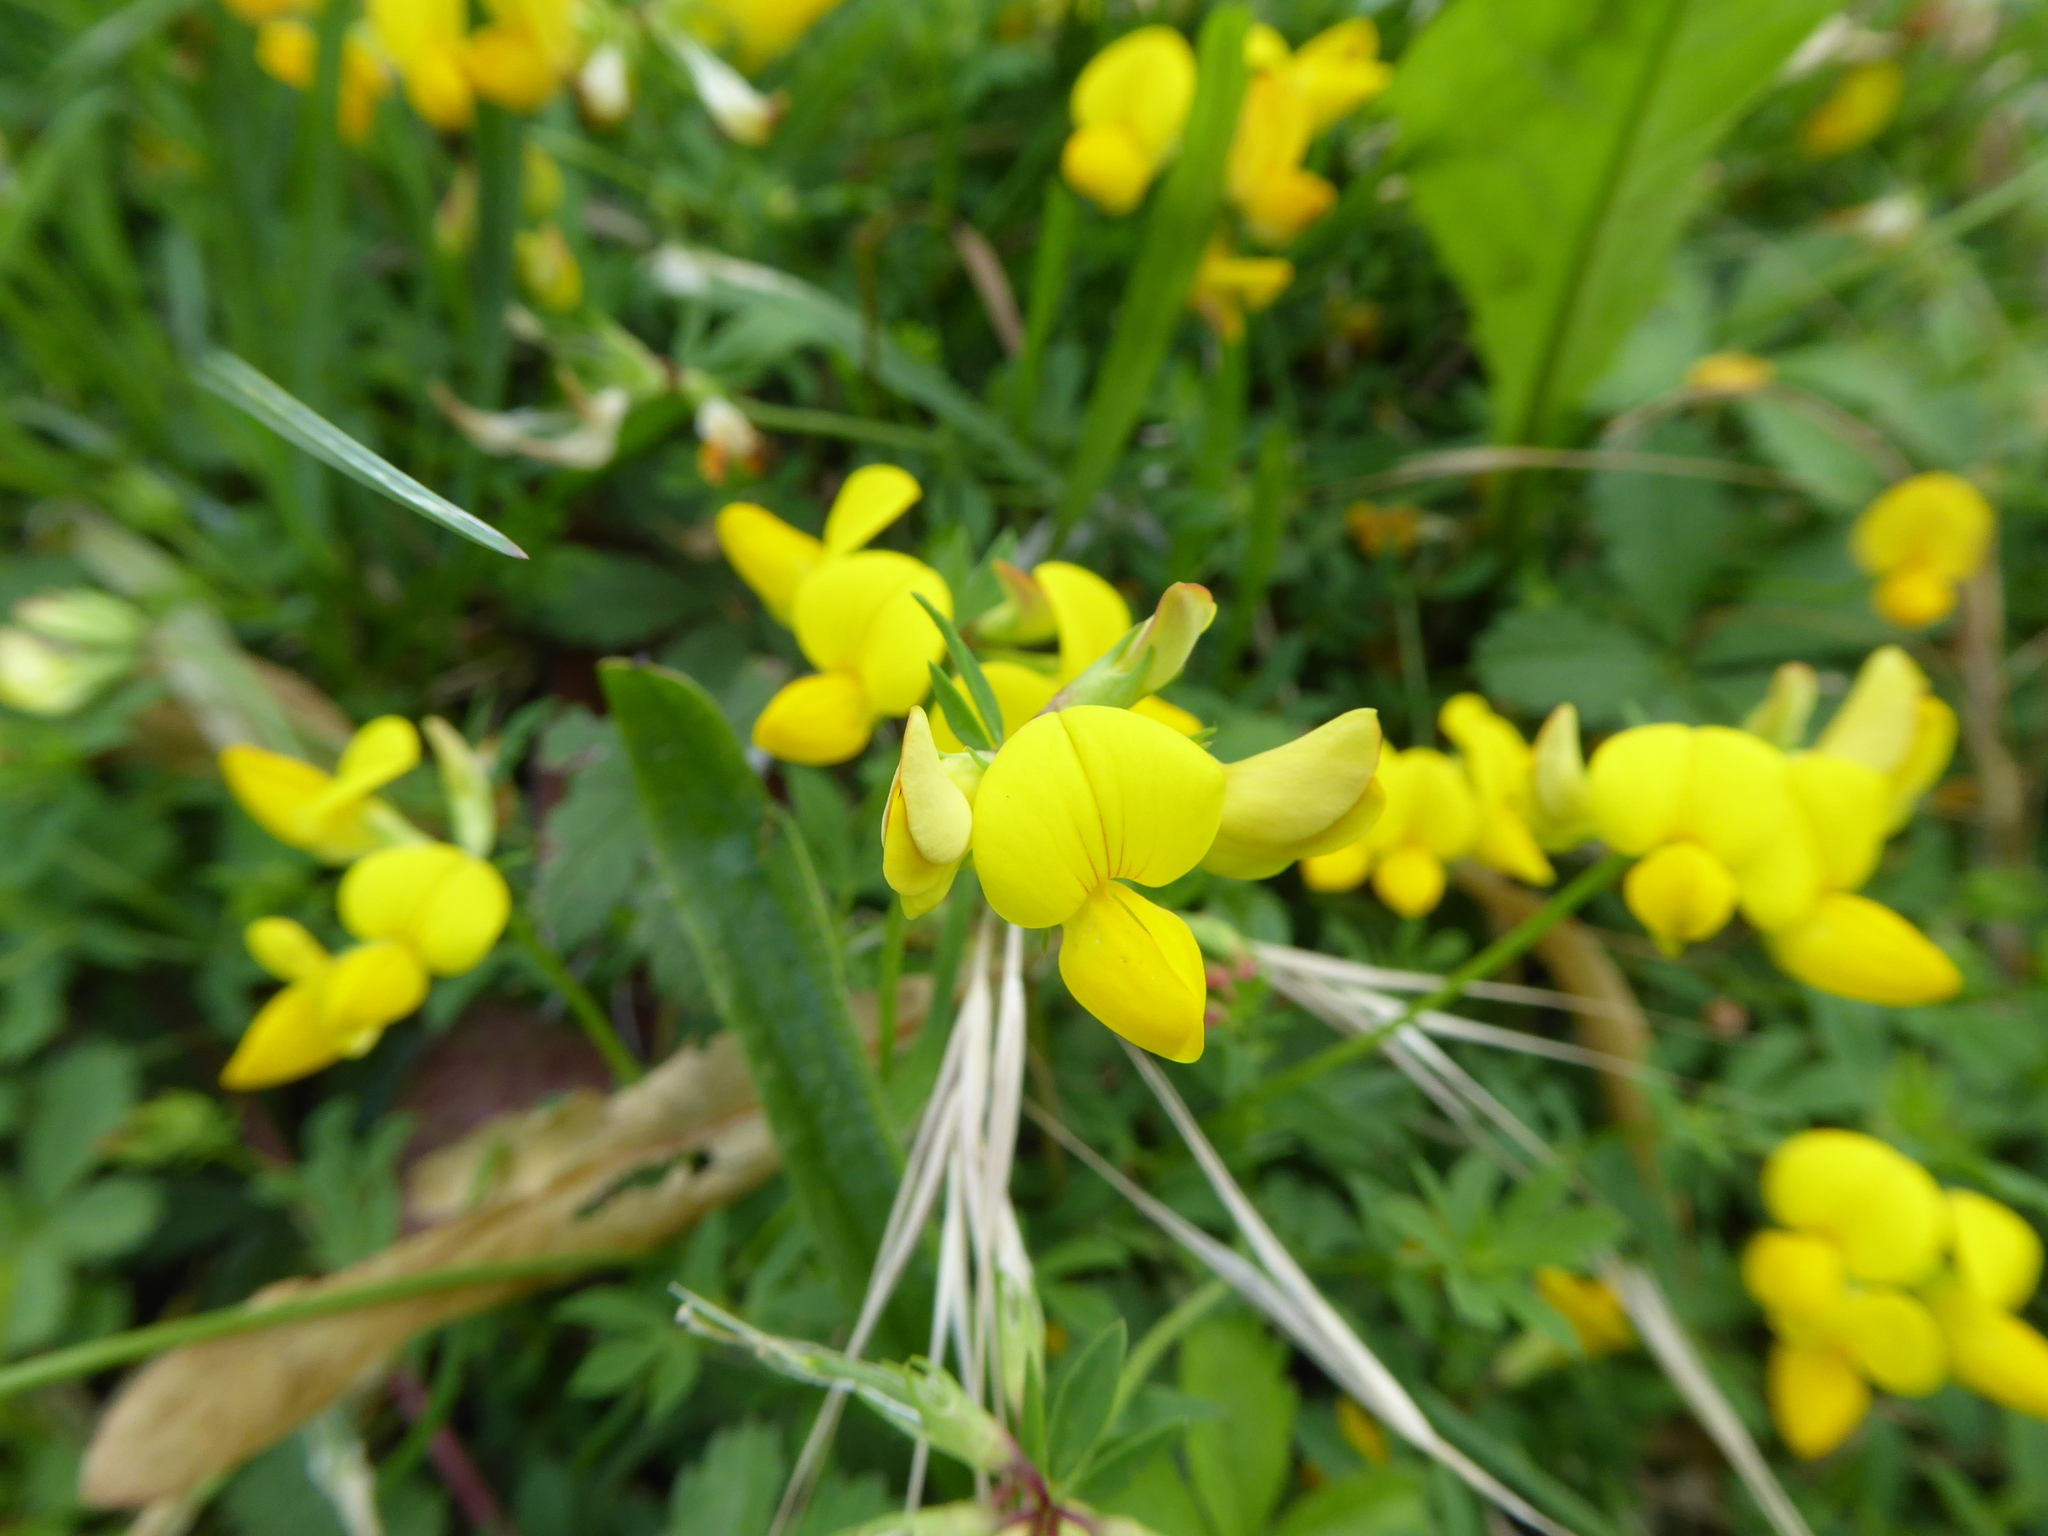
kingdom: Plantae
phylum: Tracheophyta
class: Magnoliopsida
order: Fabales
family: Fabaceae
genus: Lotus
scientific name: Lotus corniculatus
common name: Common bird's-foot-trefoil
